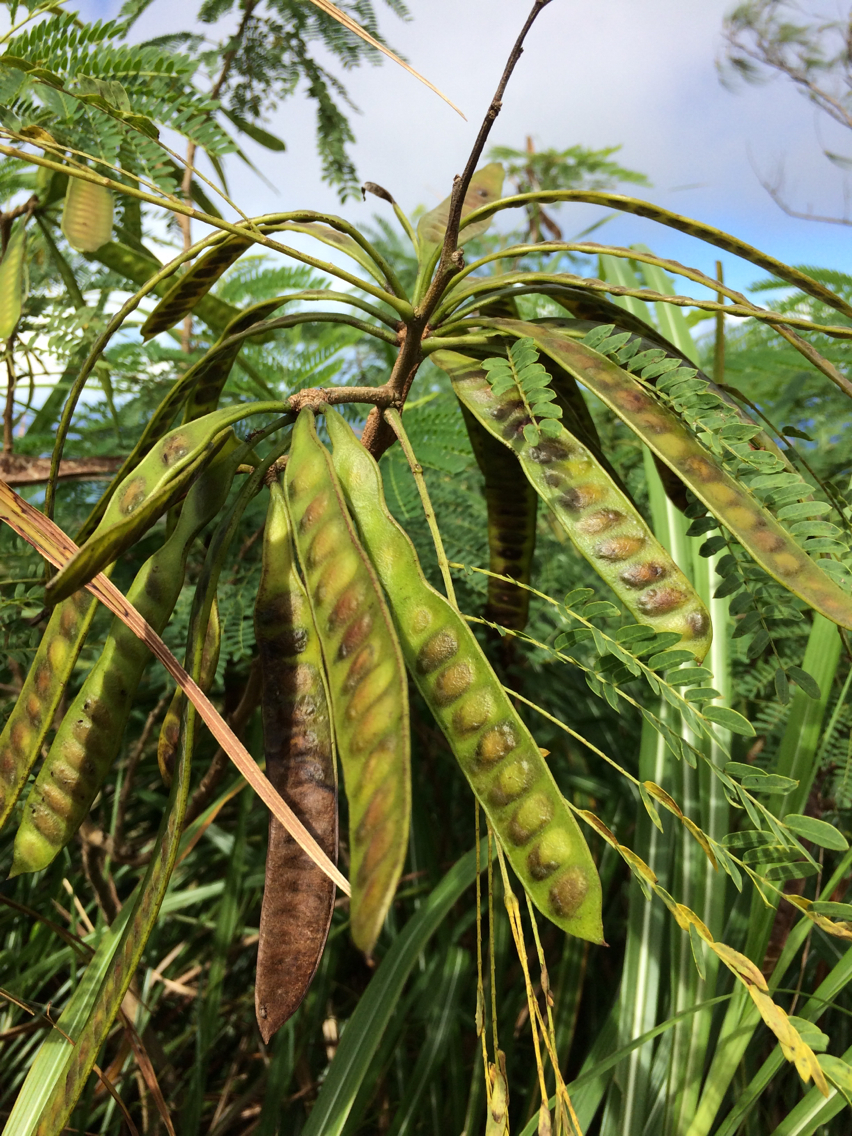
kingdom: Plantae
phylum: Tracheophyta
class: Magnoliopsida
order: Fabales
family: Fabaceae
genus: Leucaena
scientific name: Leucaena leucocephala
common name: White leadtree
